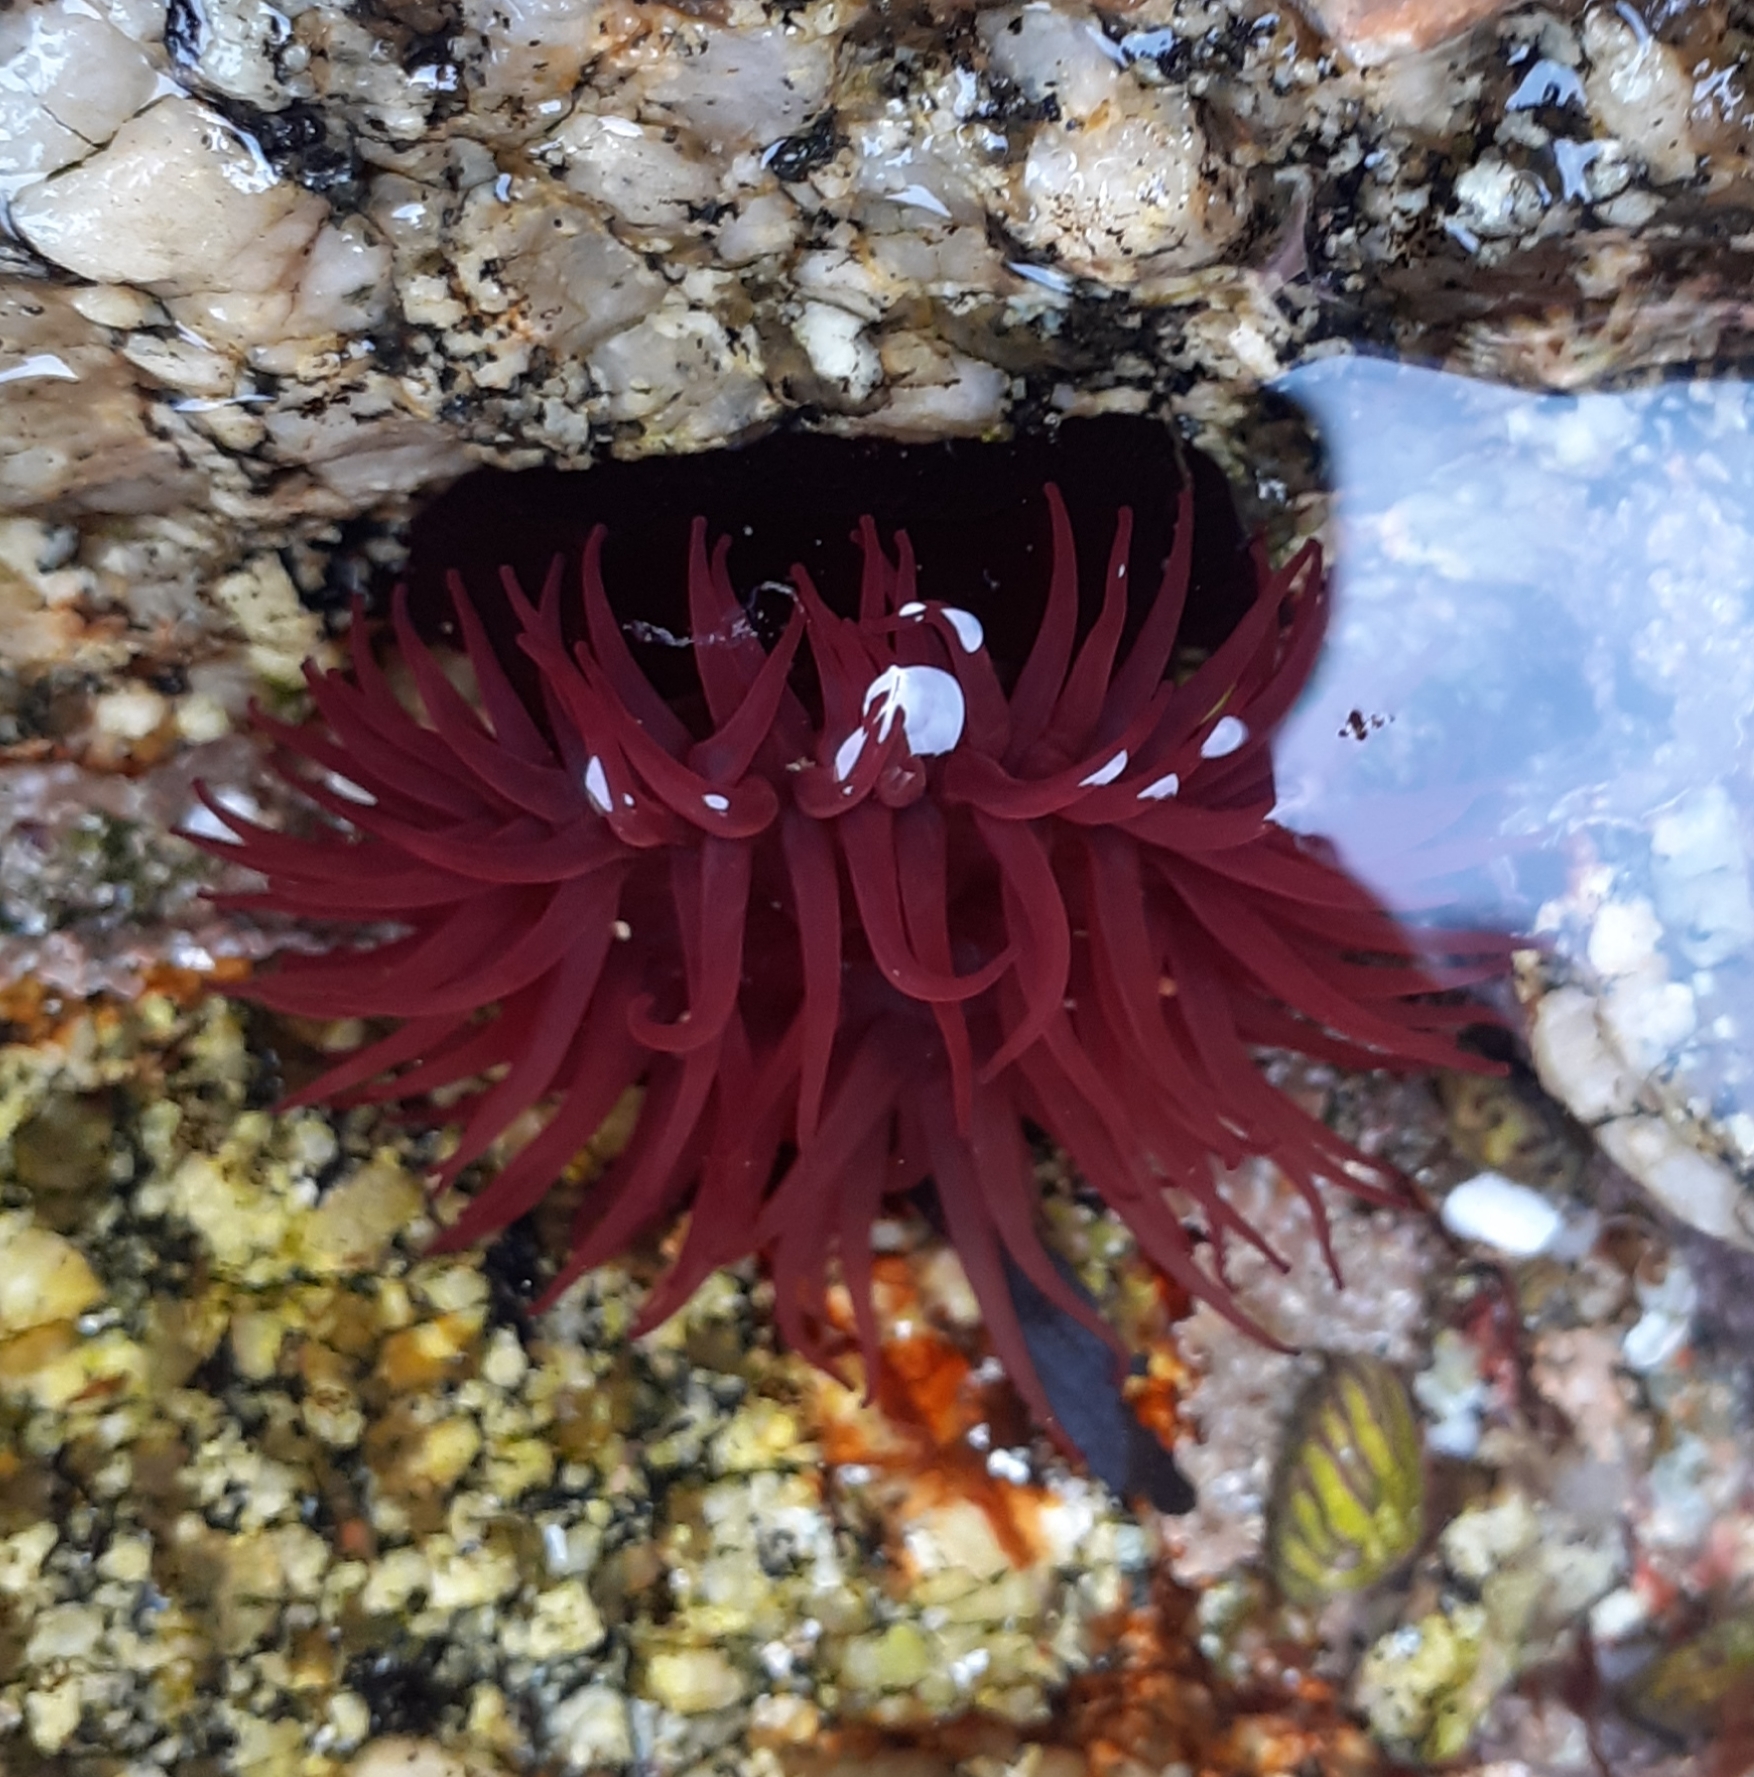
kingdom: Animalia
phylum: Cnidaria
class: Anthozoa
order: Actiniaria
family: Actiniidae
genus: Actinia
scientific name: Actinia equina
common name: Beadlet anemone
